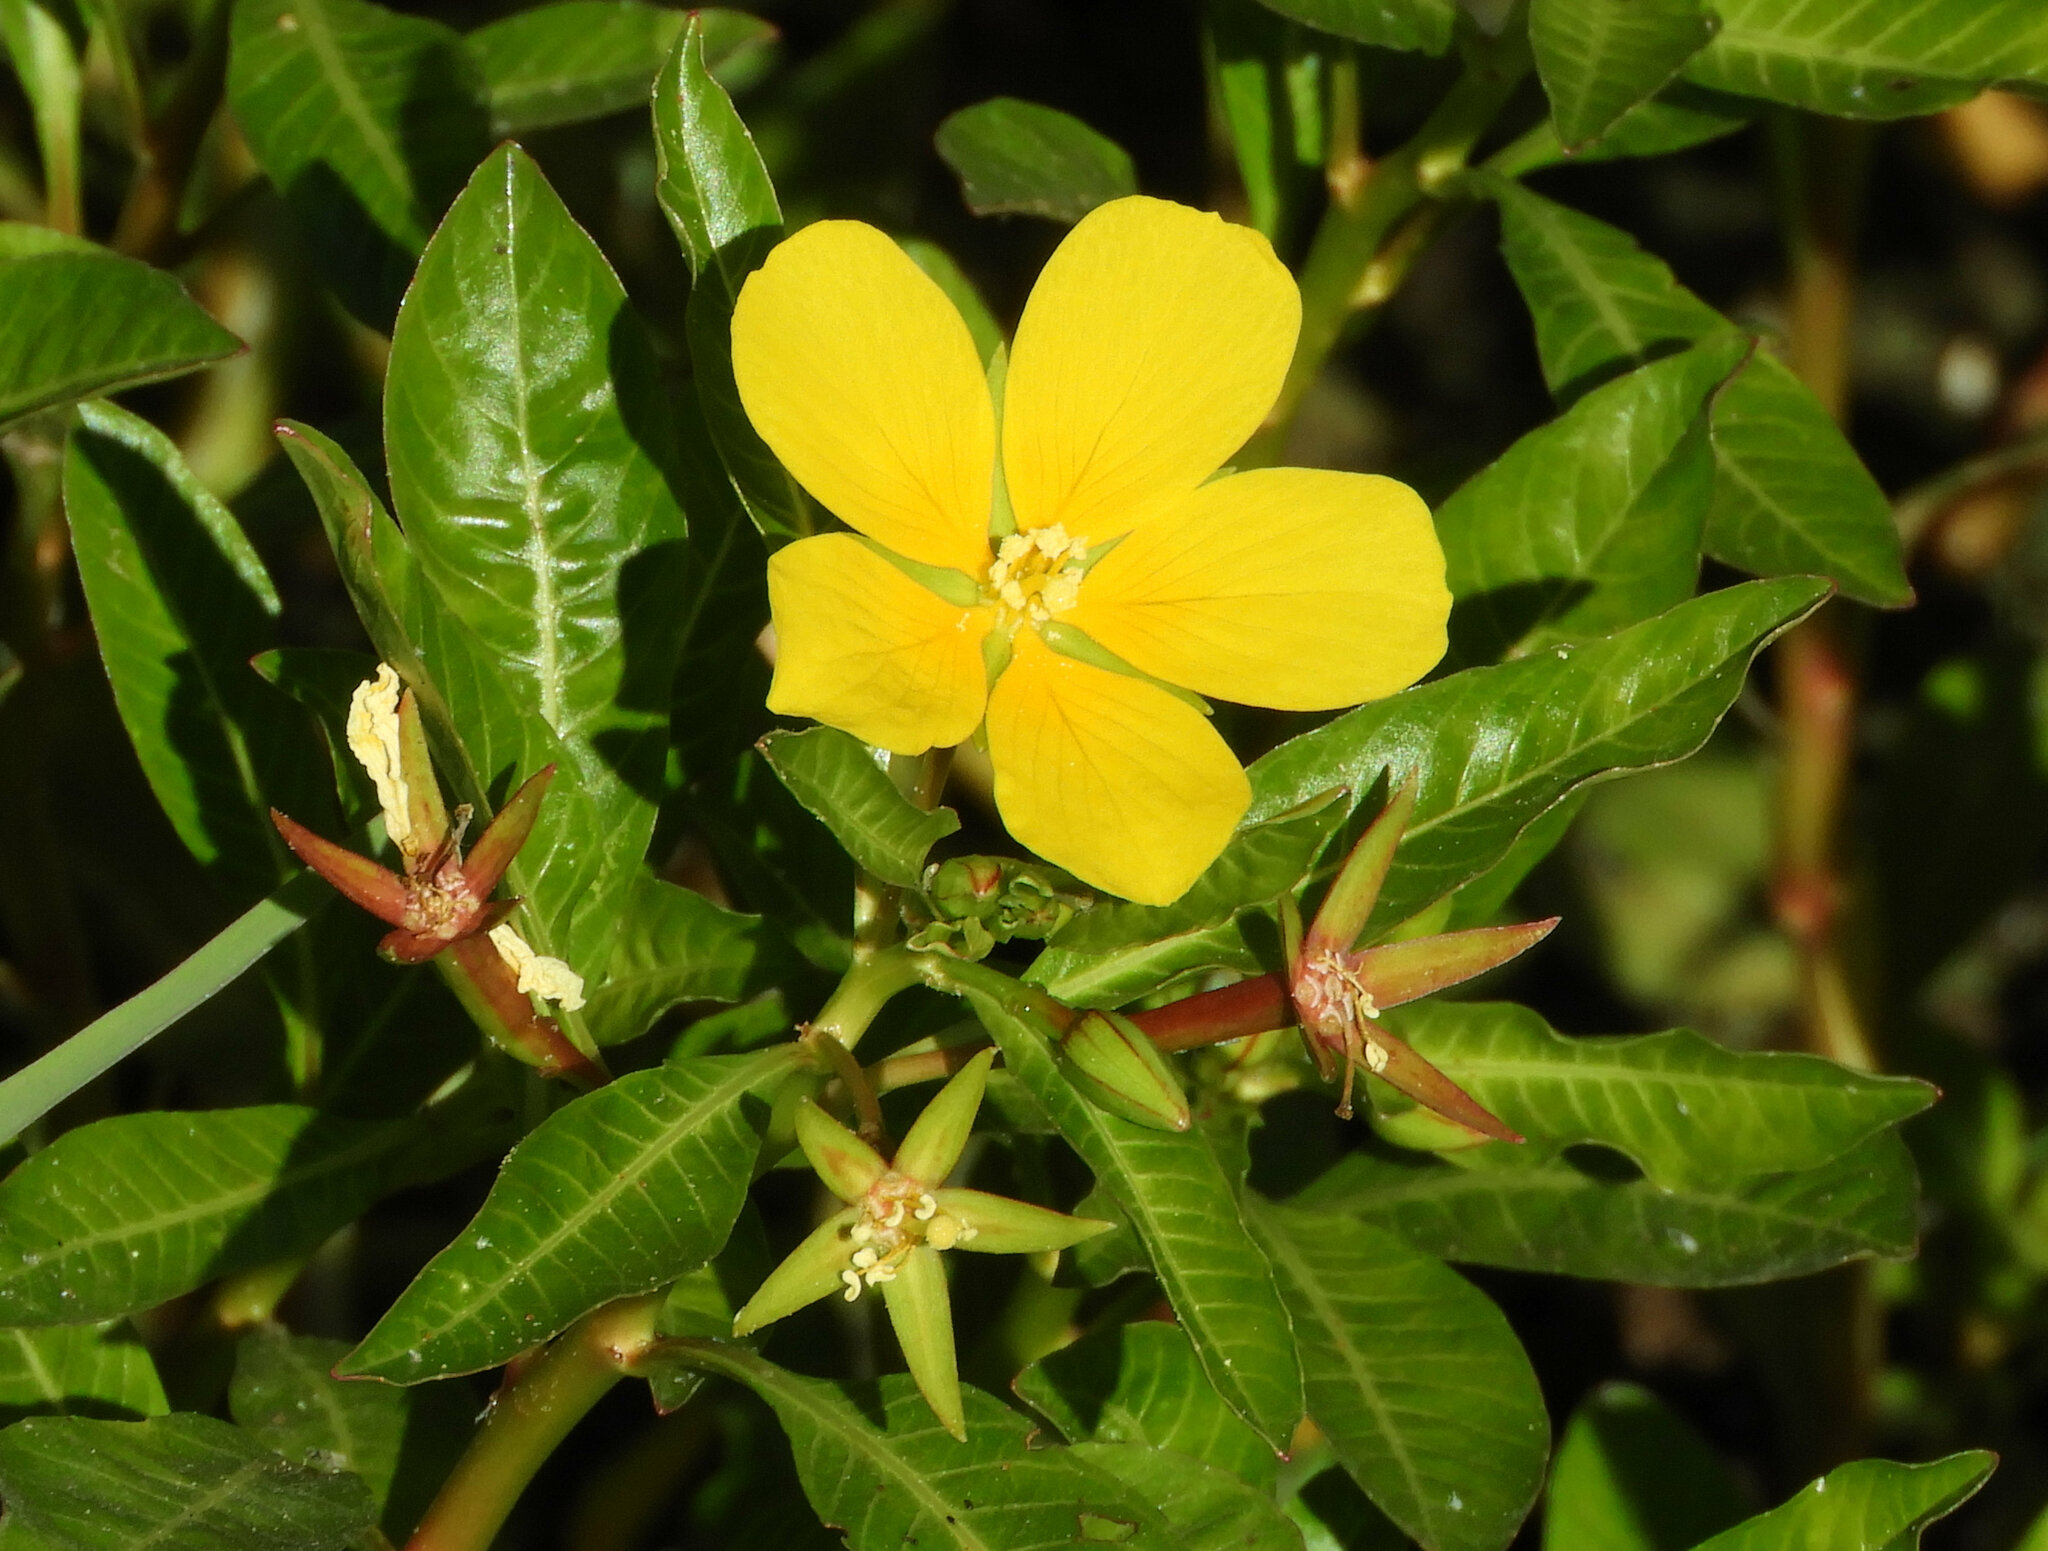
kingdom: Plantae
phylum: Tracheophyta
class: Magnoliopsida
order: Myrtales
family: Onagraceae
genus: Ludwigia
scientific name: Ludwigia peploides
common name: Floating primrose-willow
